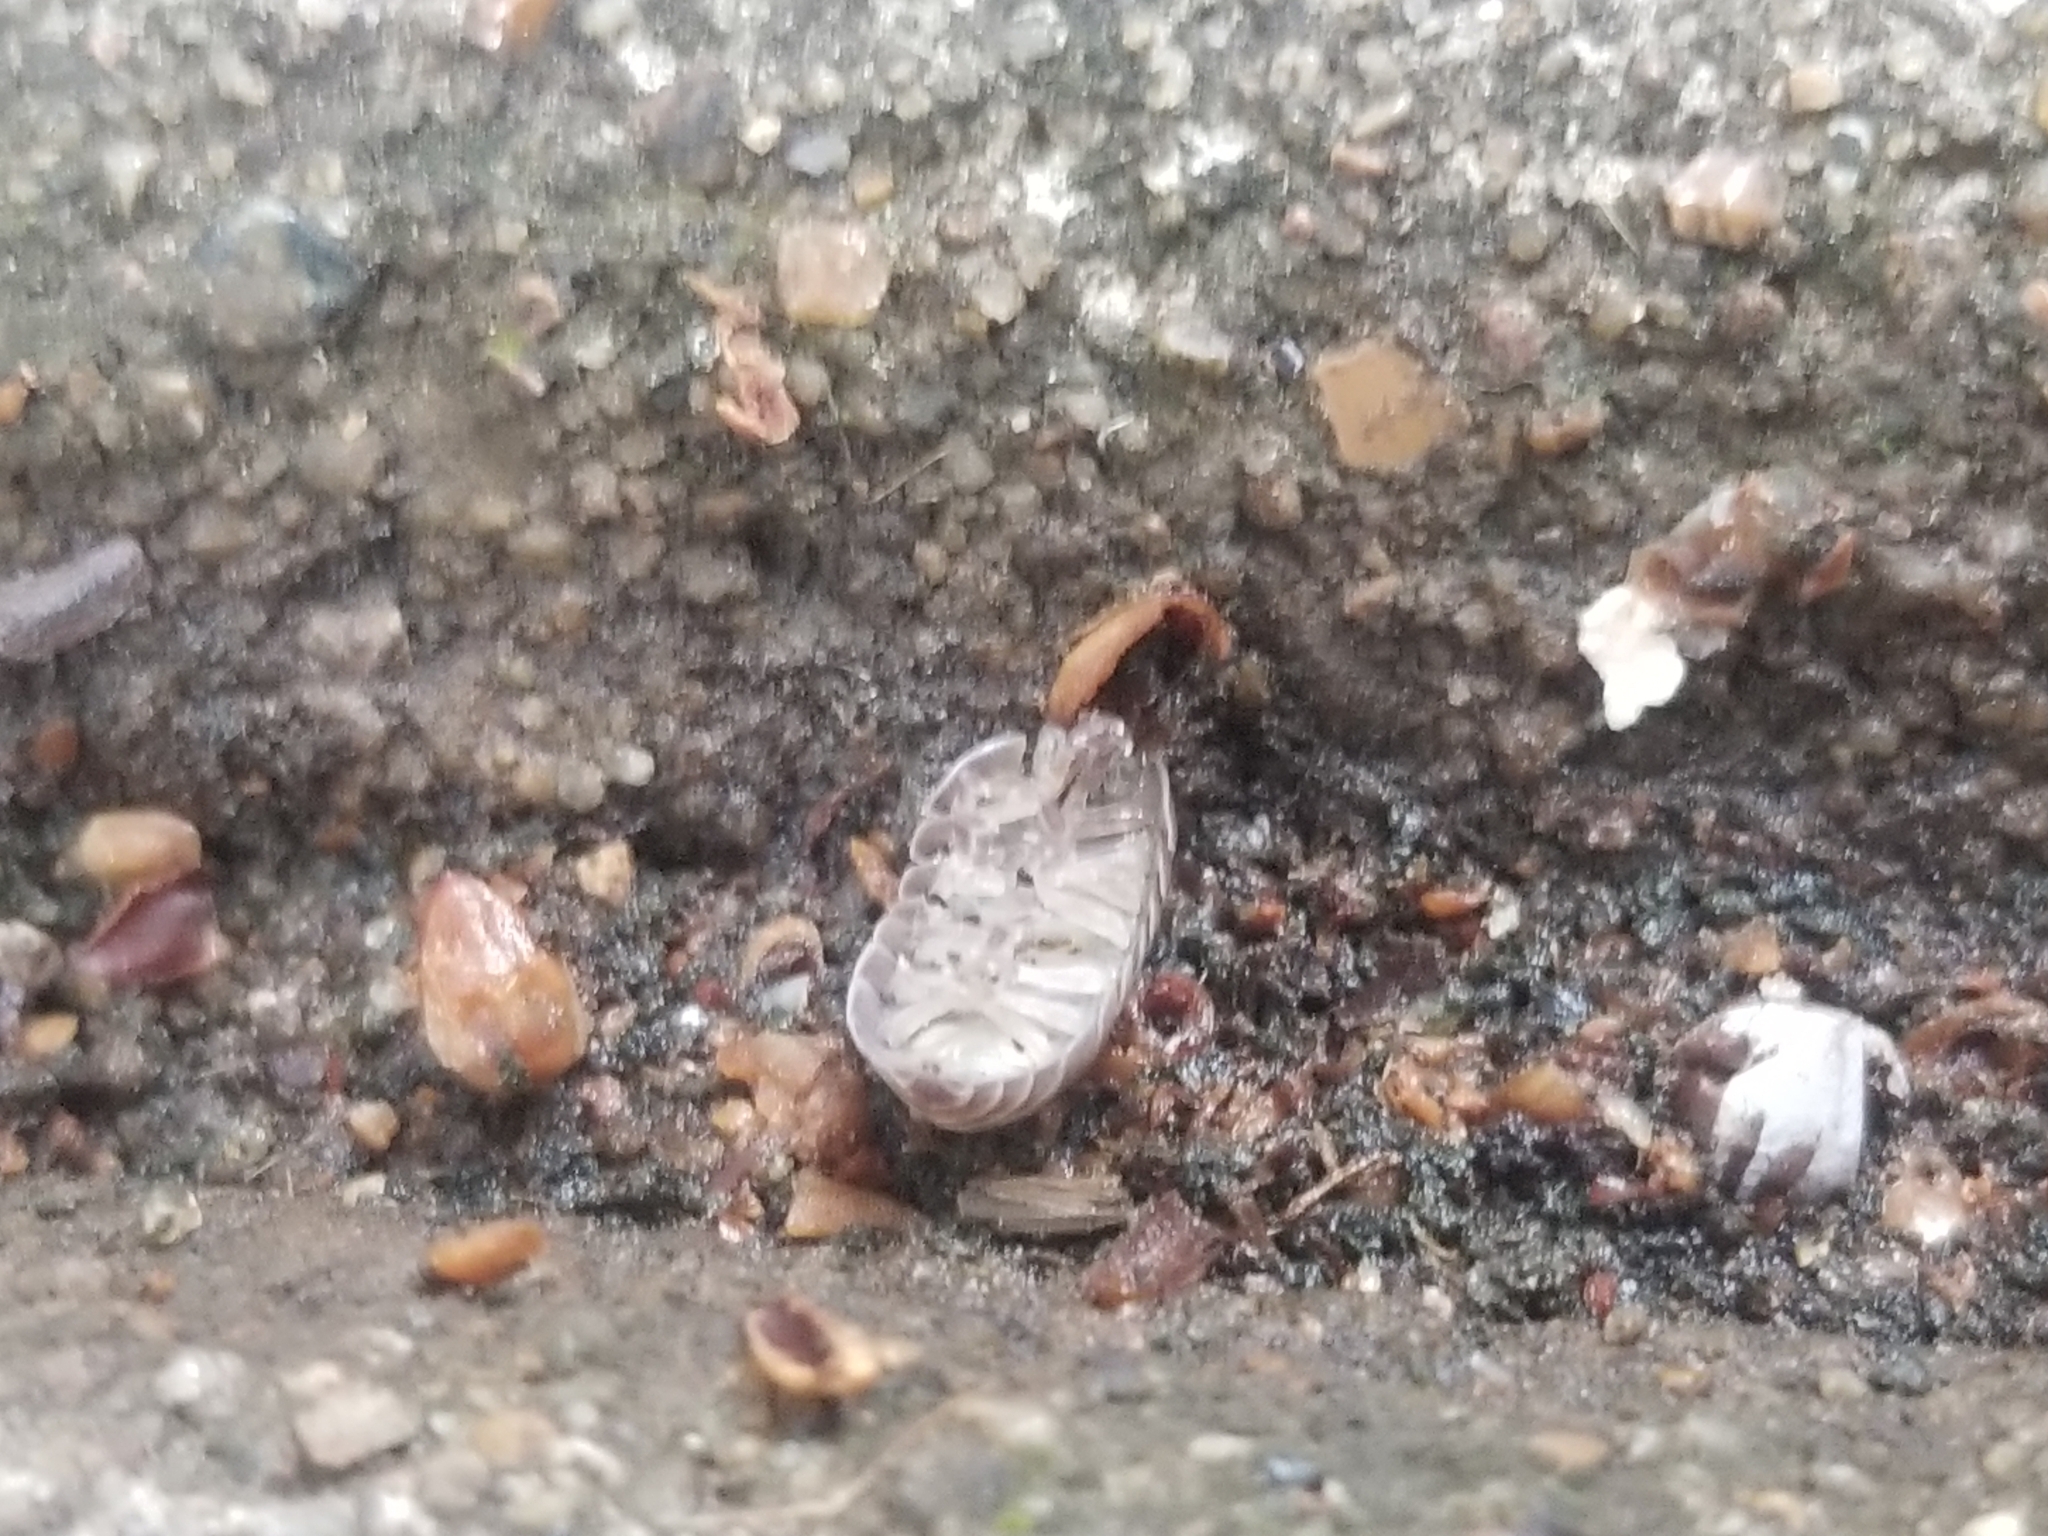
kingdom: Animalia
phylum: Arthropoda
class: Malacostraca
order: Isopoda
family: Armadillidiidae
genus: Armadillidium
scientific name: Armadillidium vulgare
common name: Common pill woodlouse
